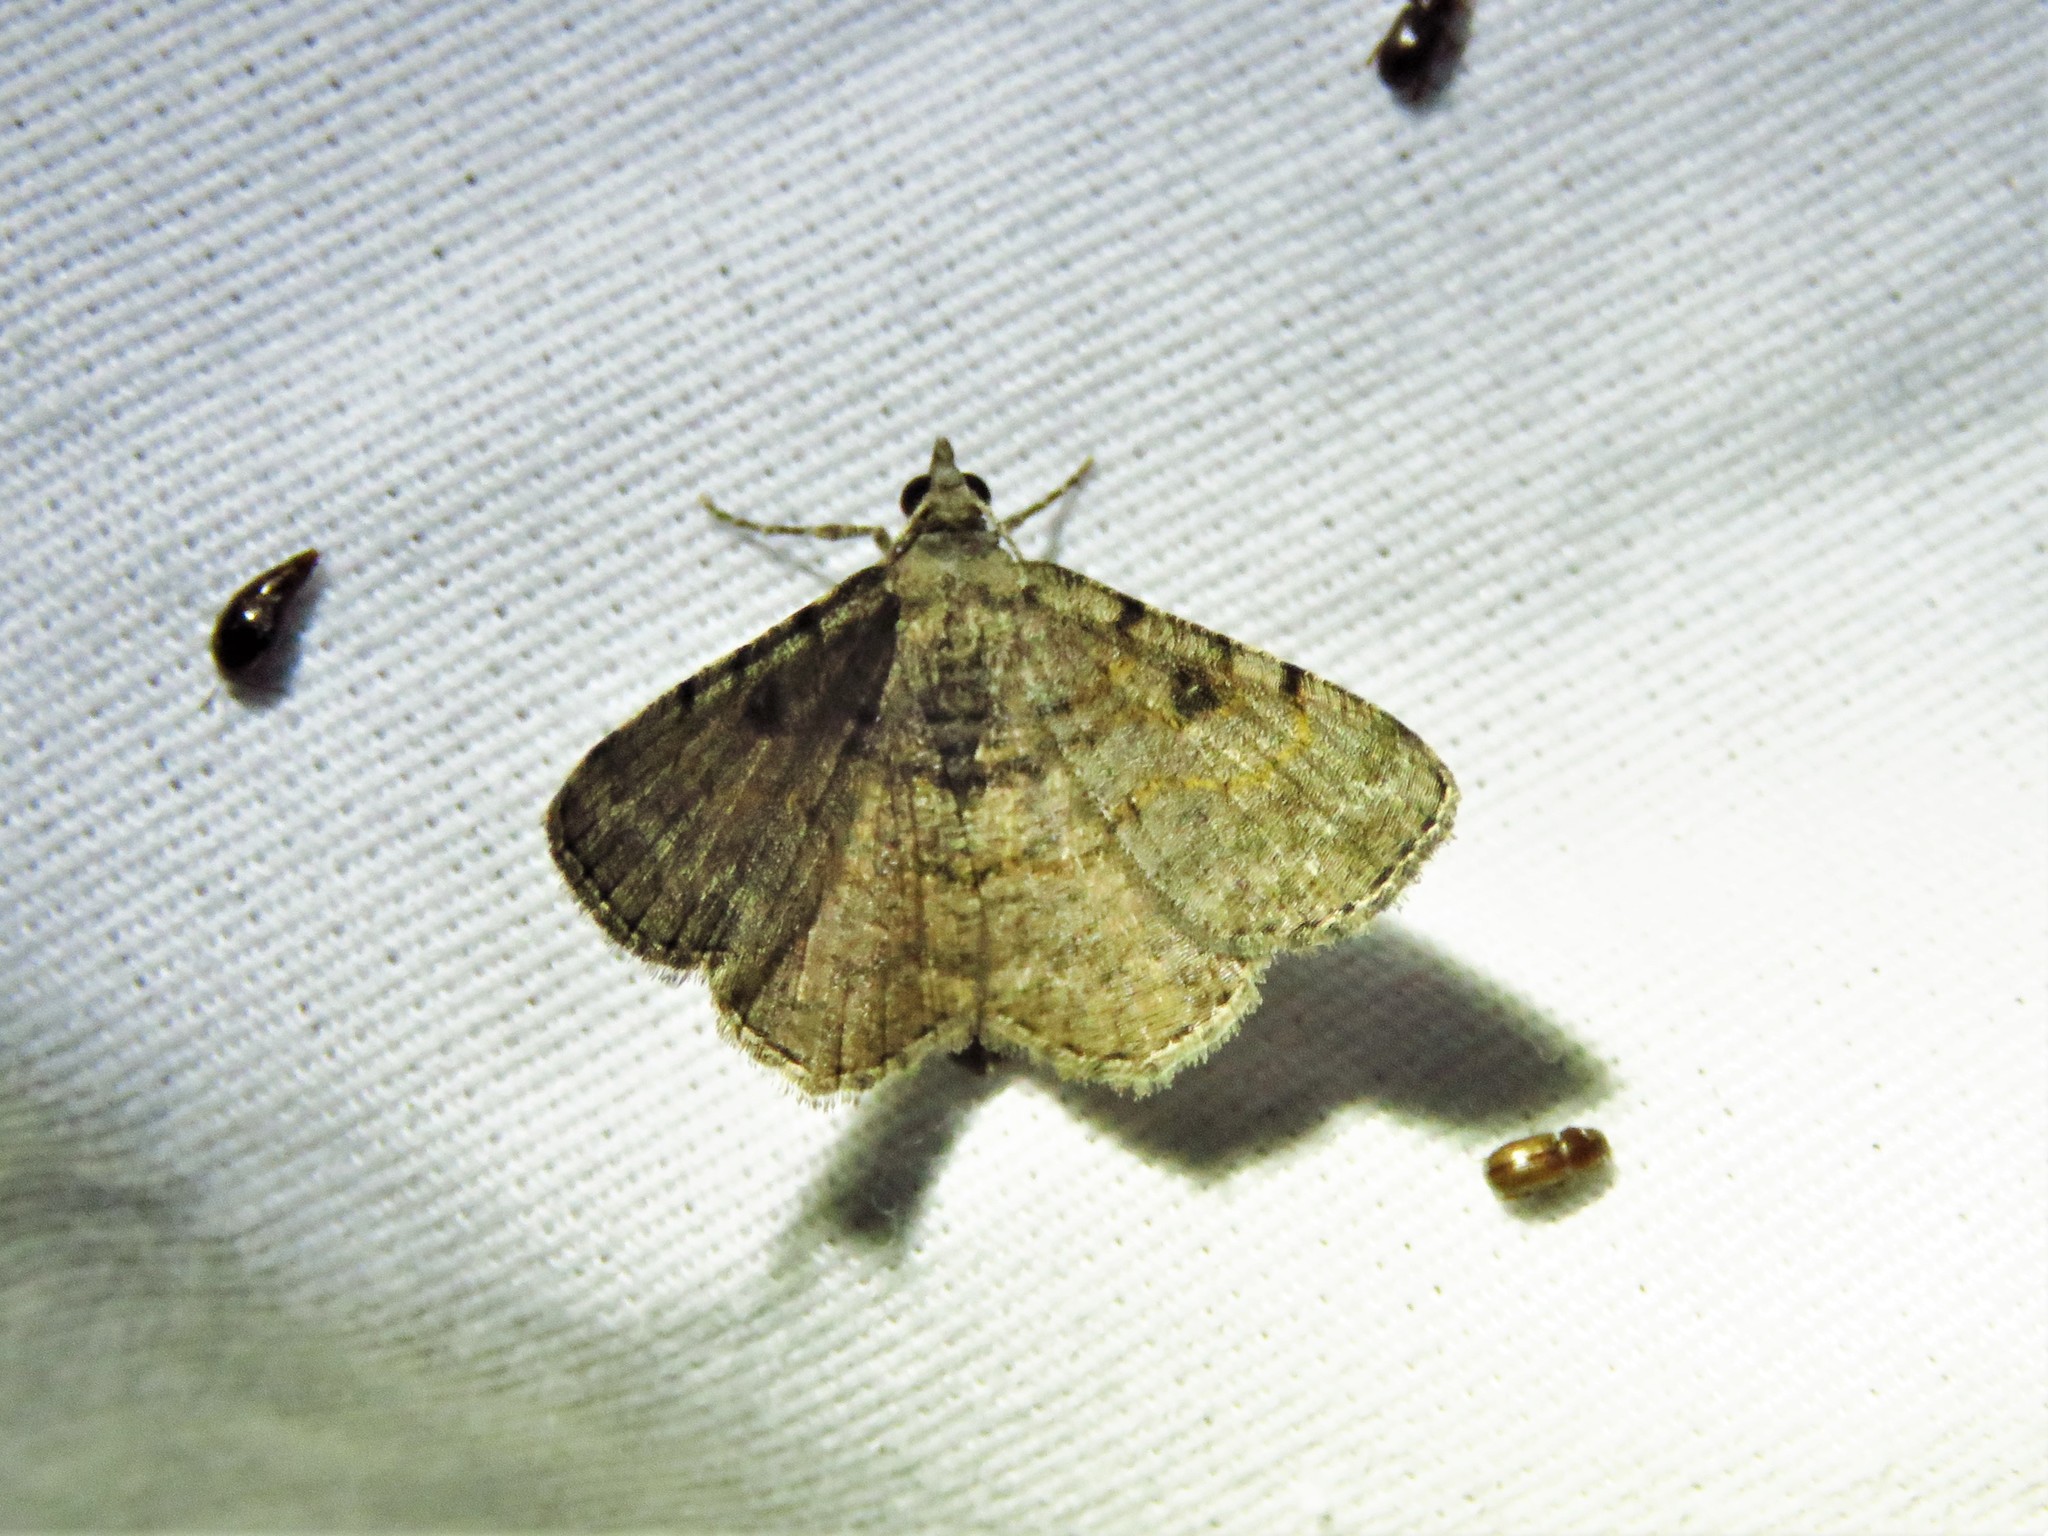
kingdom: Animalia
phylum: Arthropoda
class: Insecta
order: Lepidoptera
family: Geometridae
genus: Digrammia
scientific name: Digrammia gnophosaria
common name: Hollow-spotted angle
